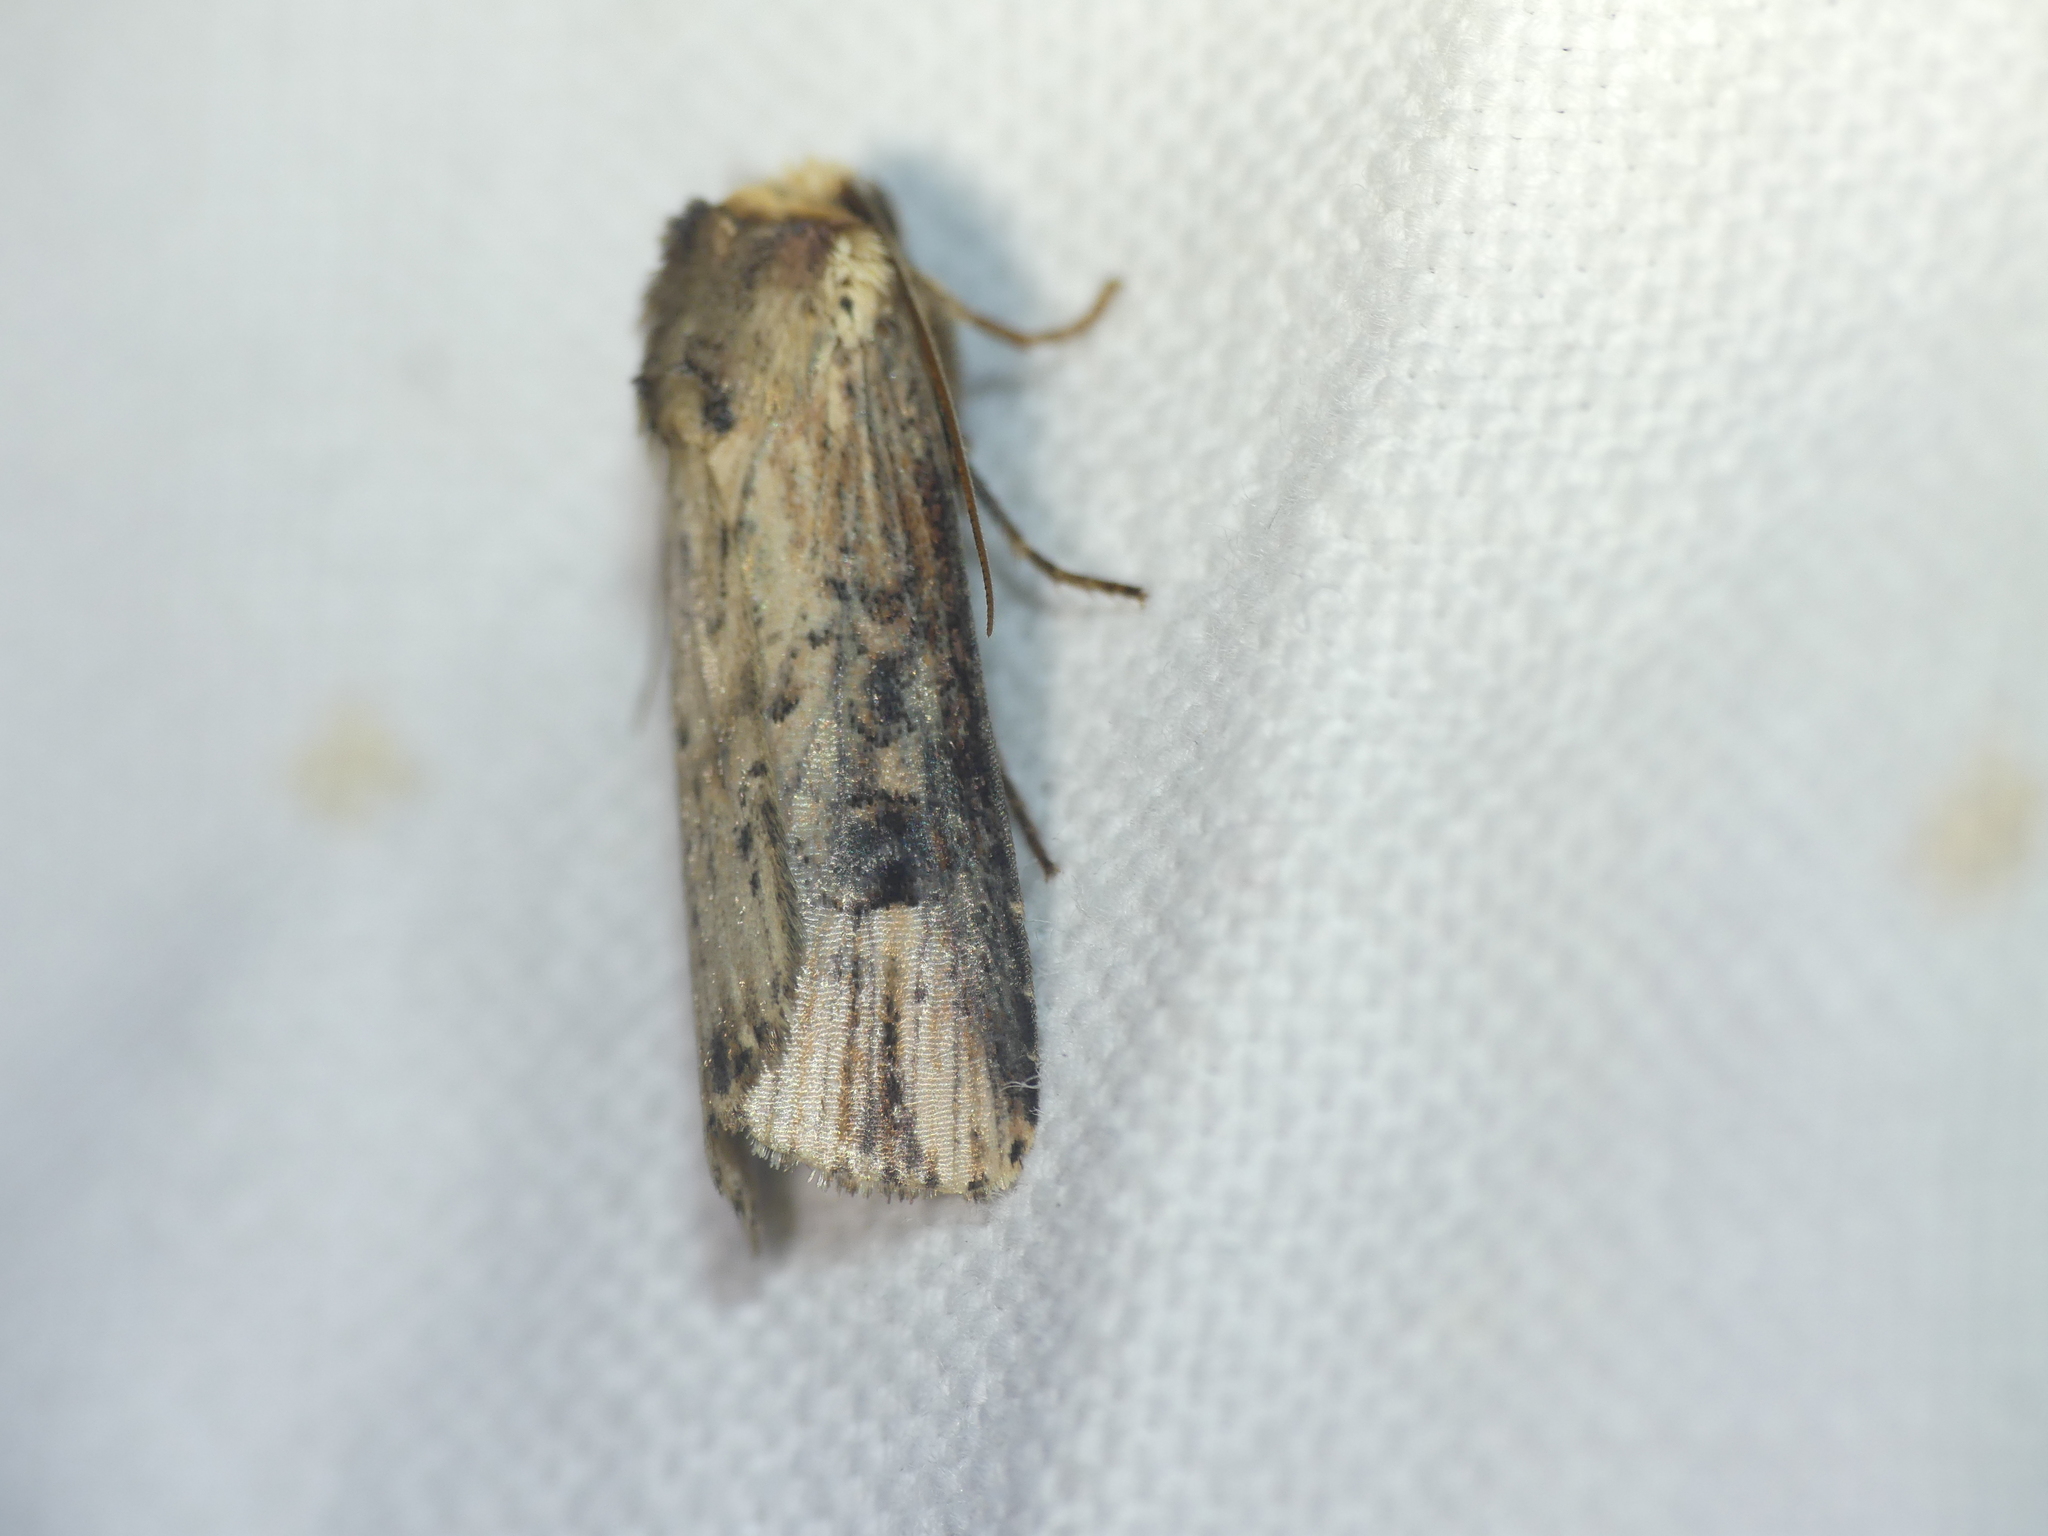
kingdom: Animalia
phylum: Arthropoda
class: Insecta
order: Lepidoptera
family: Noctuidae
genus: Axylia
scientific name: Axylia putris
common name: Flame
